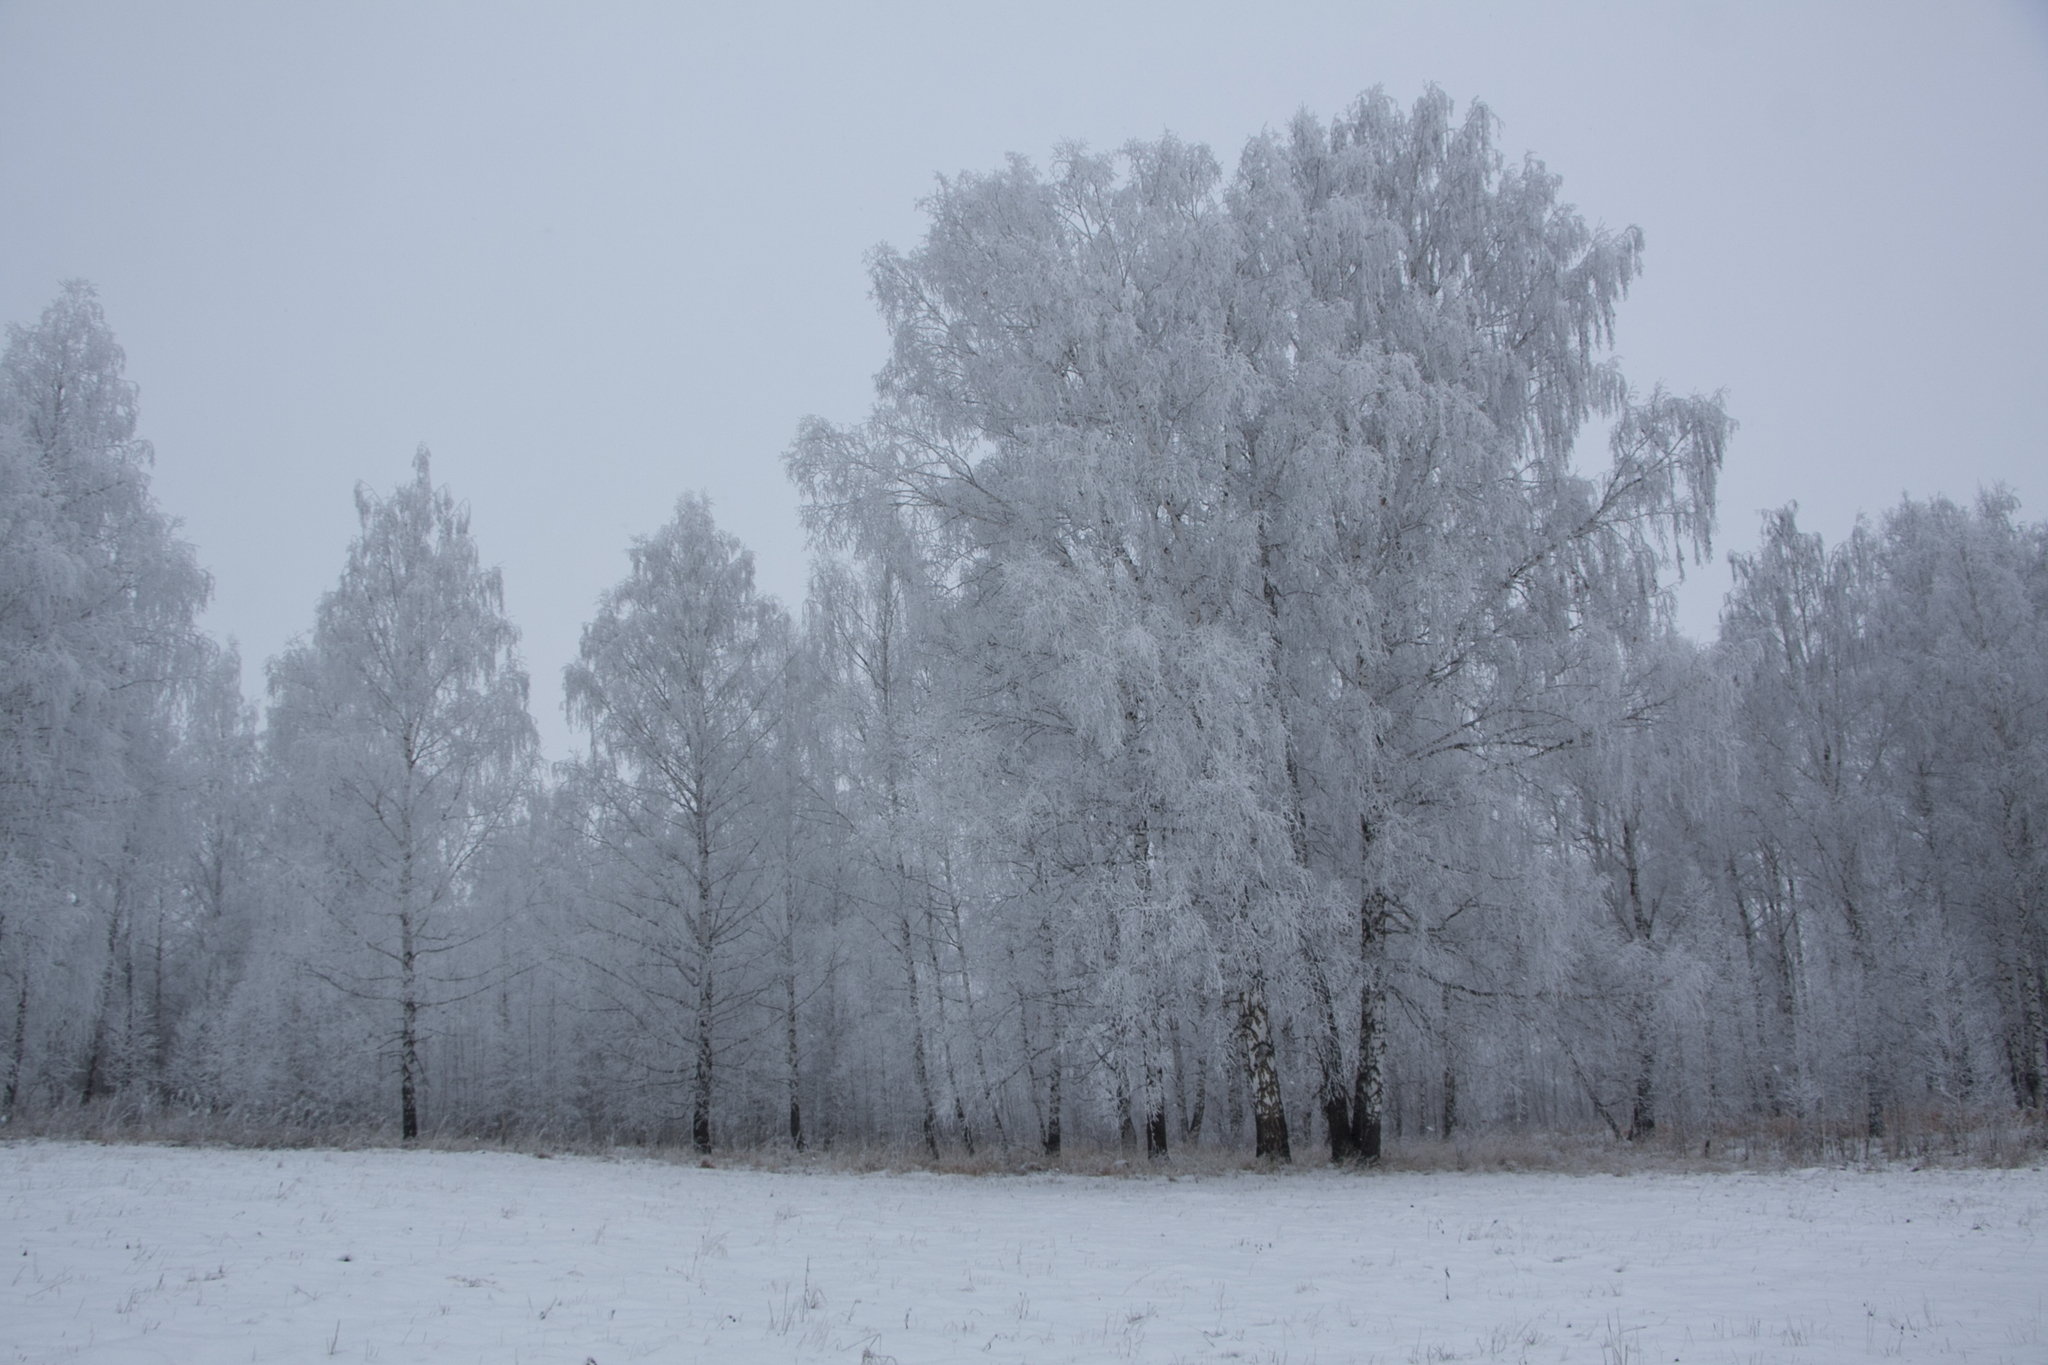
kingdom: Plantae
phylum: Tracheophyta
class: Magnoliopsida
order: Fagales
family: Betulaceae
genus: Betula
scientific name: Betula pendula
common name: Silver birch
